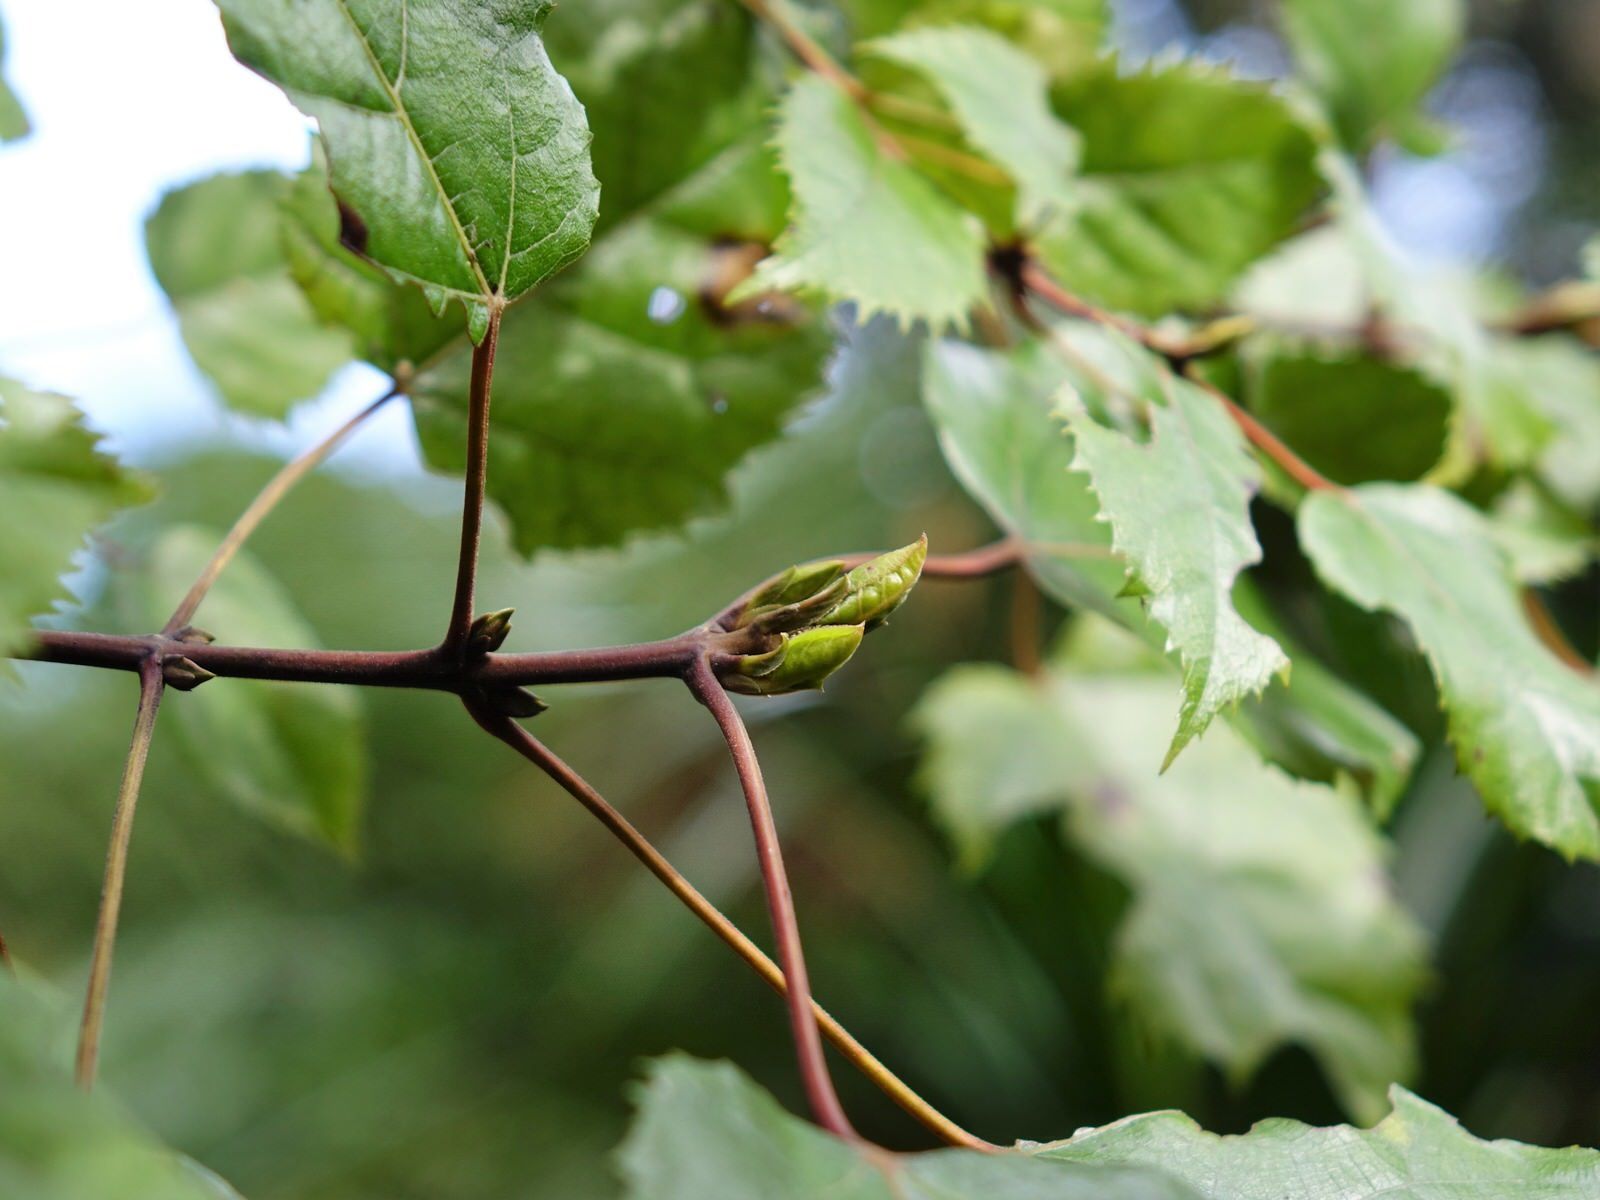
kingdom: Plantae
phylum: Tracheophyta
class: Magnoliopsida
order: Oxalidales
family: Elaeocarpaceae
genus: Aristotelia
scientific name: Aristotelia serrata
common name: New zealand wineberry
